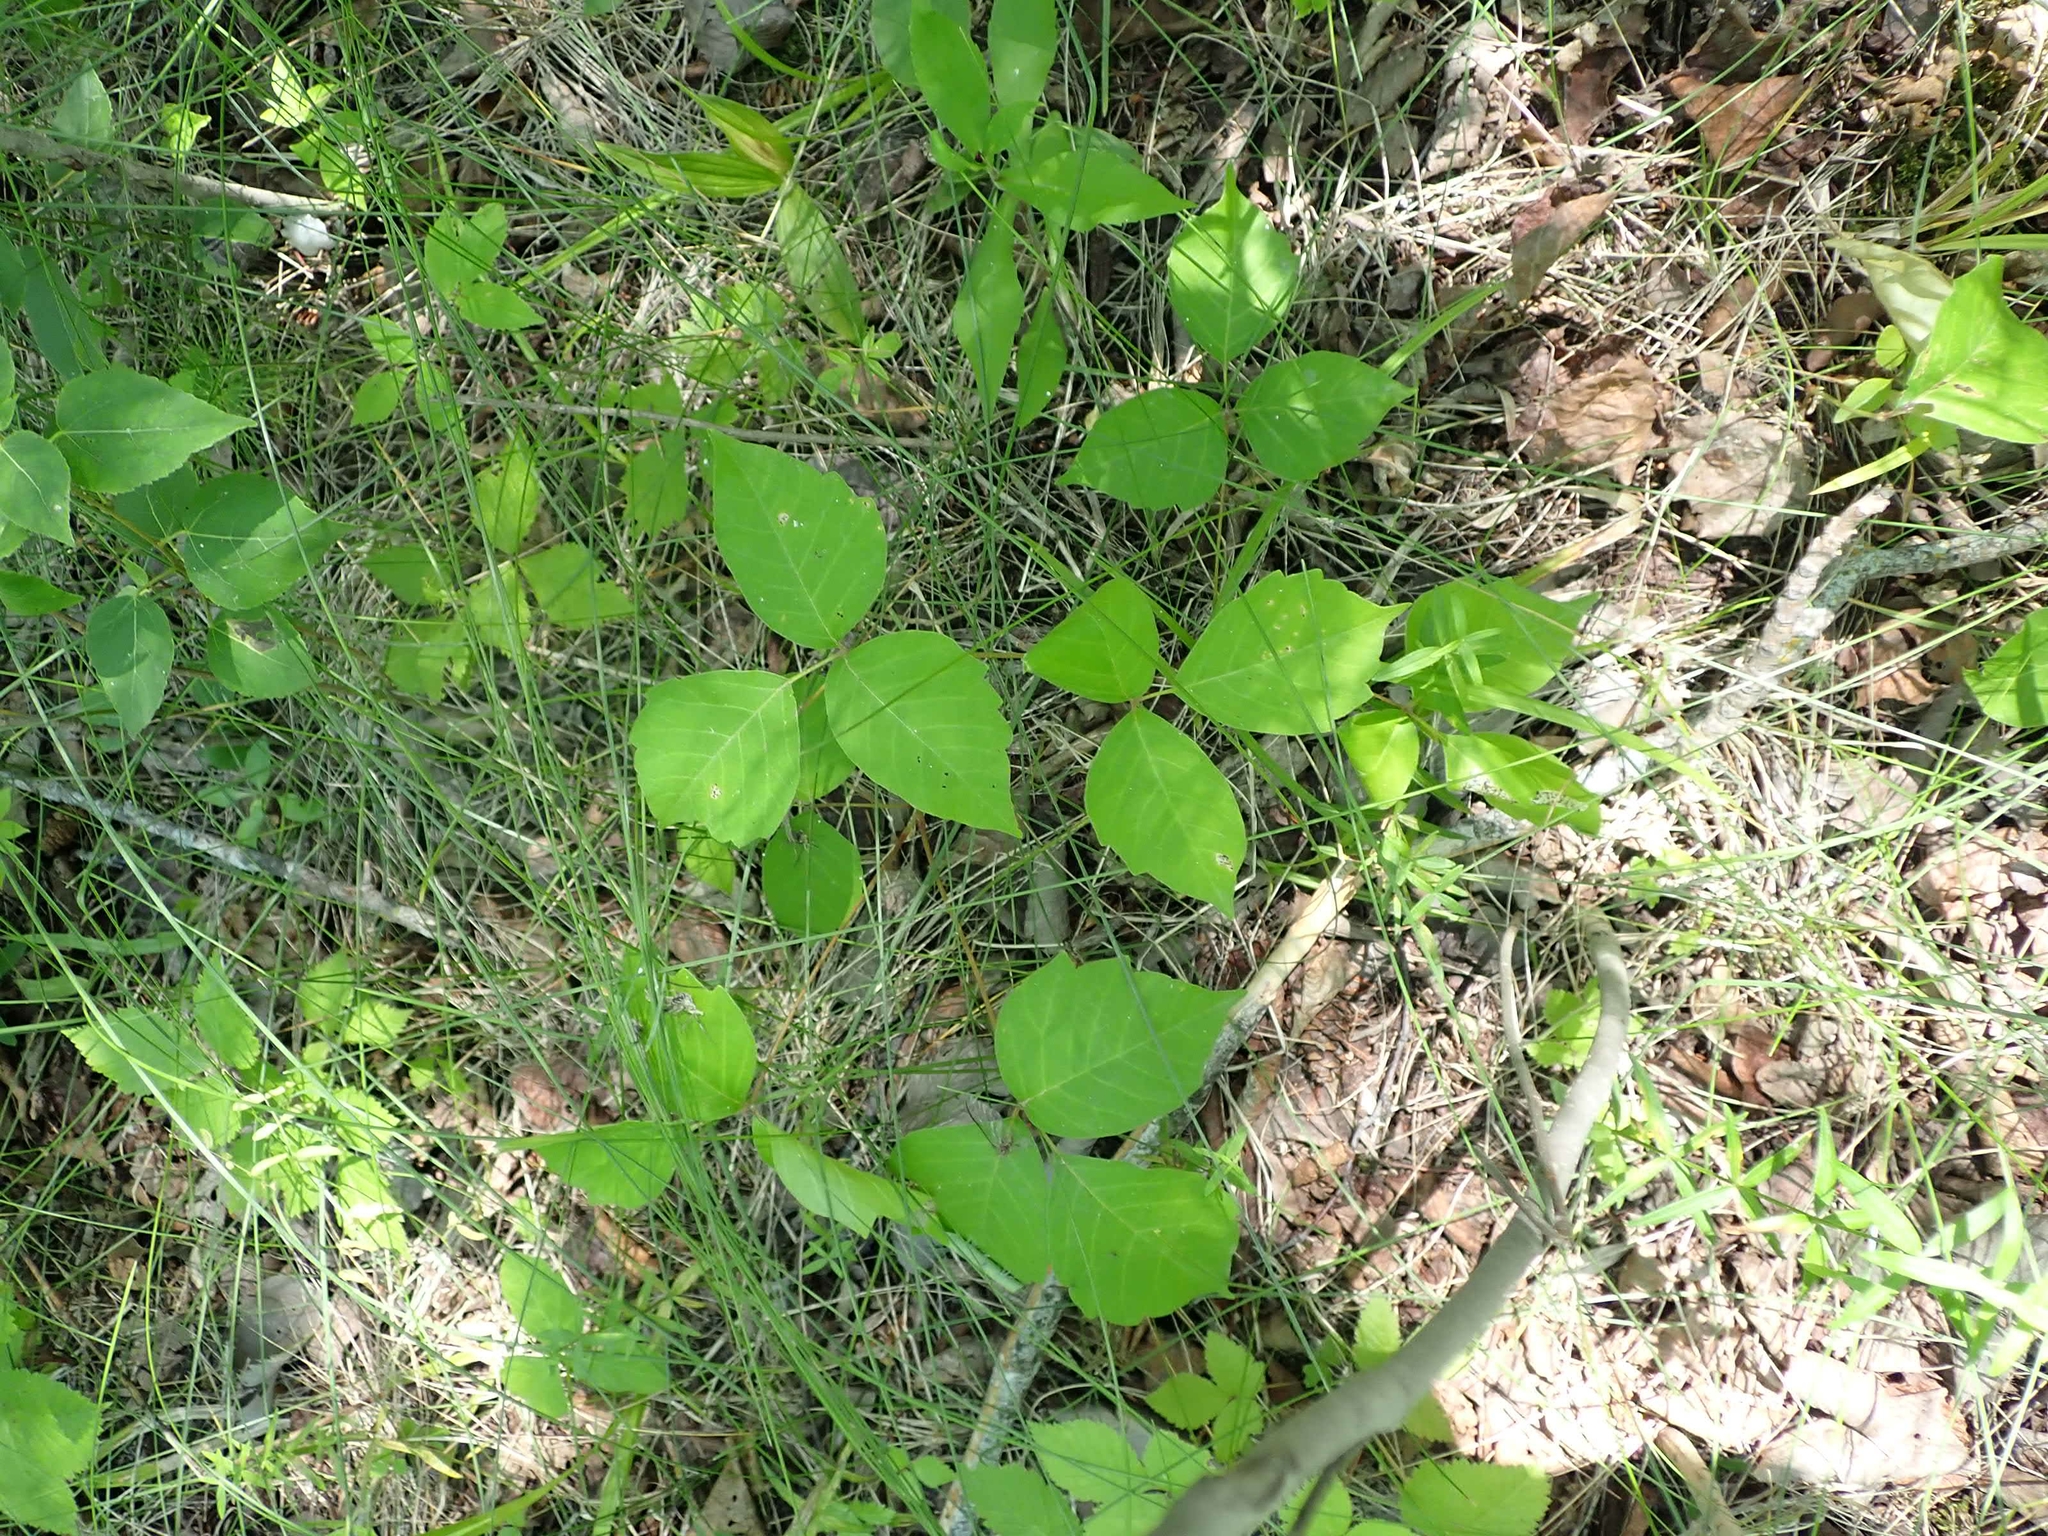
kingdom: Plantae
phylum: Tracheophyta
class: Magnoliopsida
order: Sapindales
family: Anacardiaceae
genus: Toxicodendron
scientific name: Toxicodendron rydbergii
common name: Rydberg's poison-ivy
